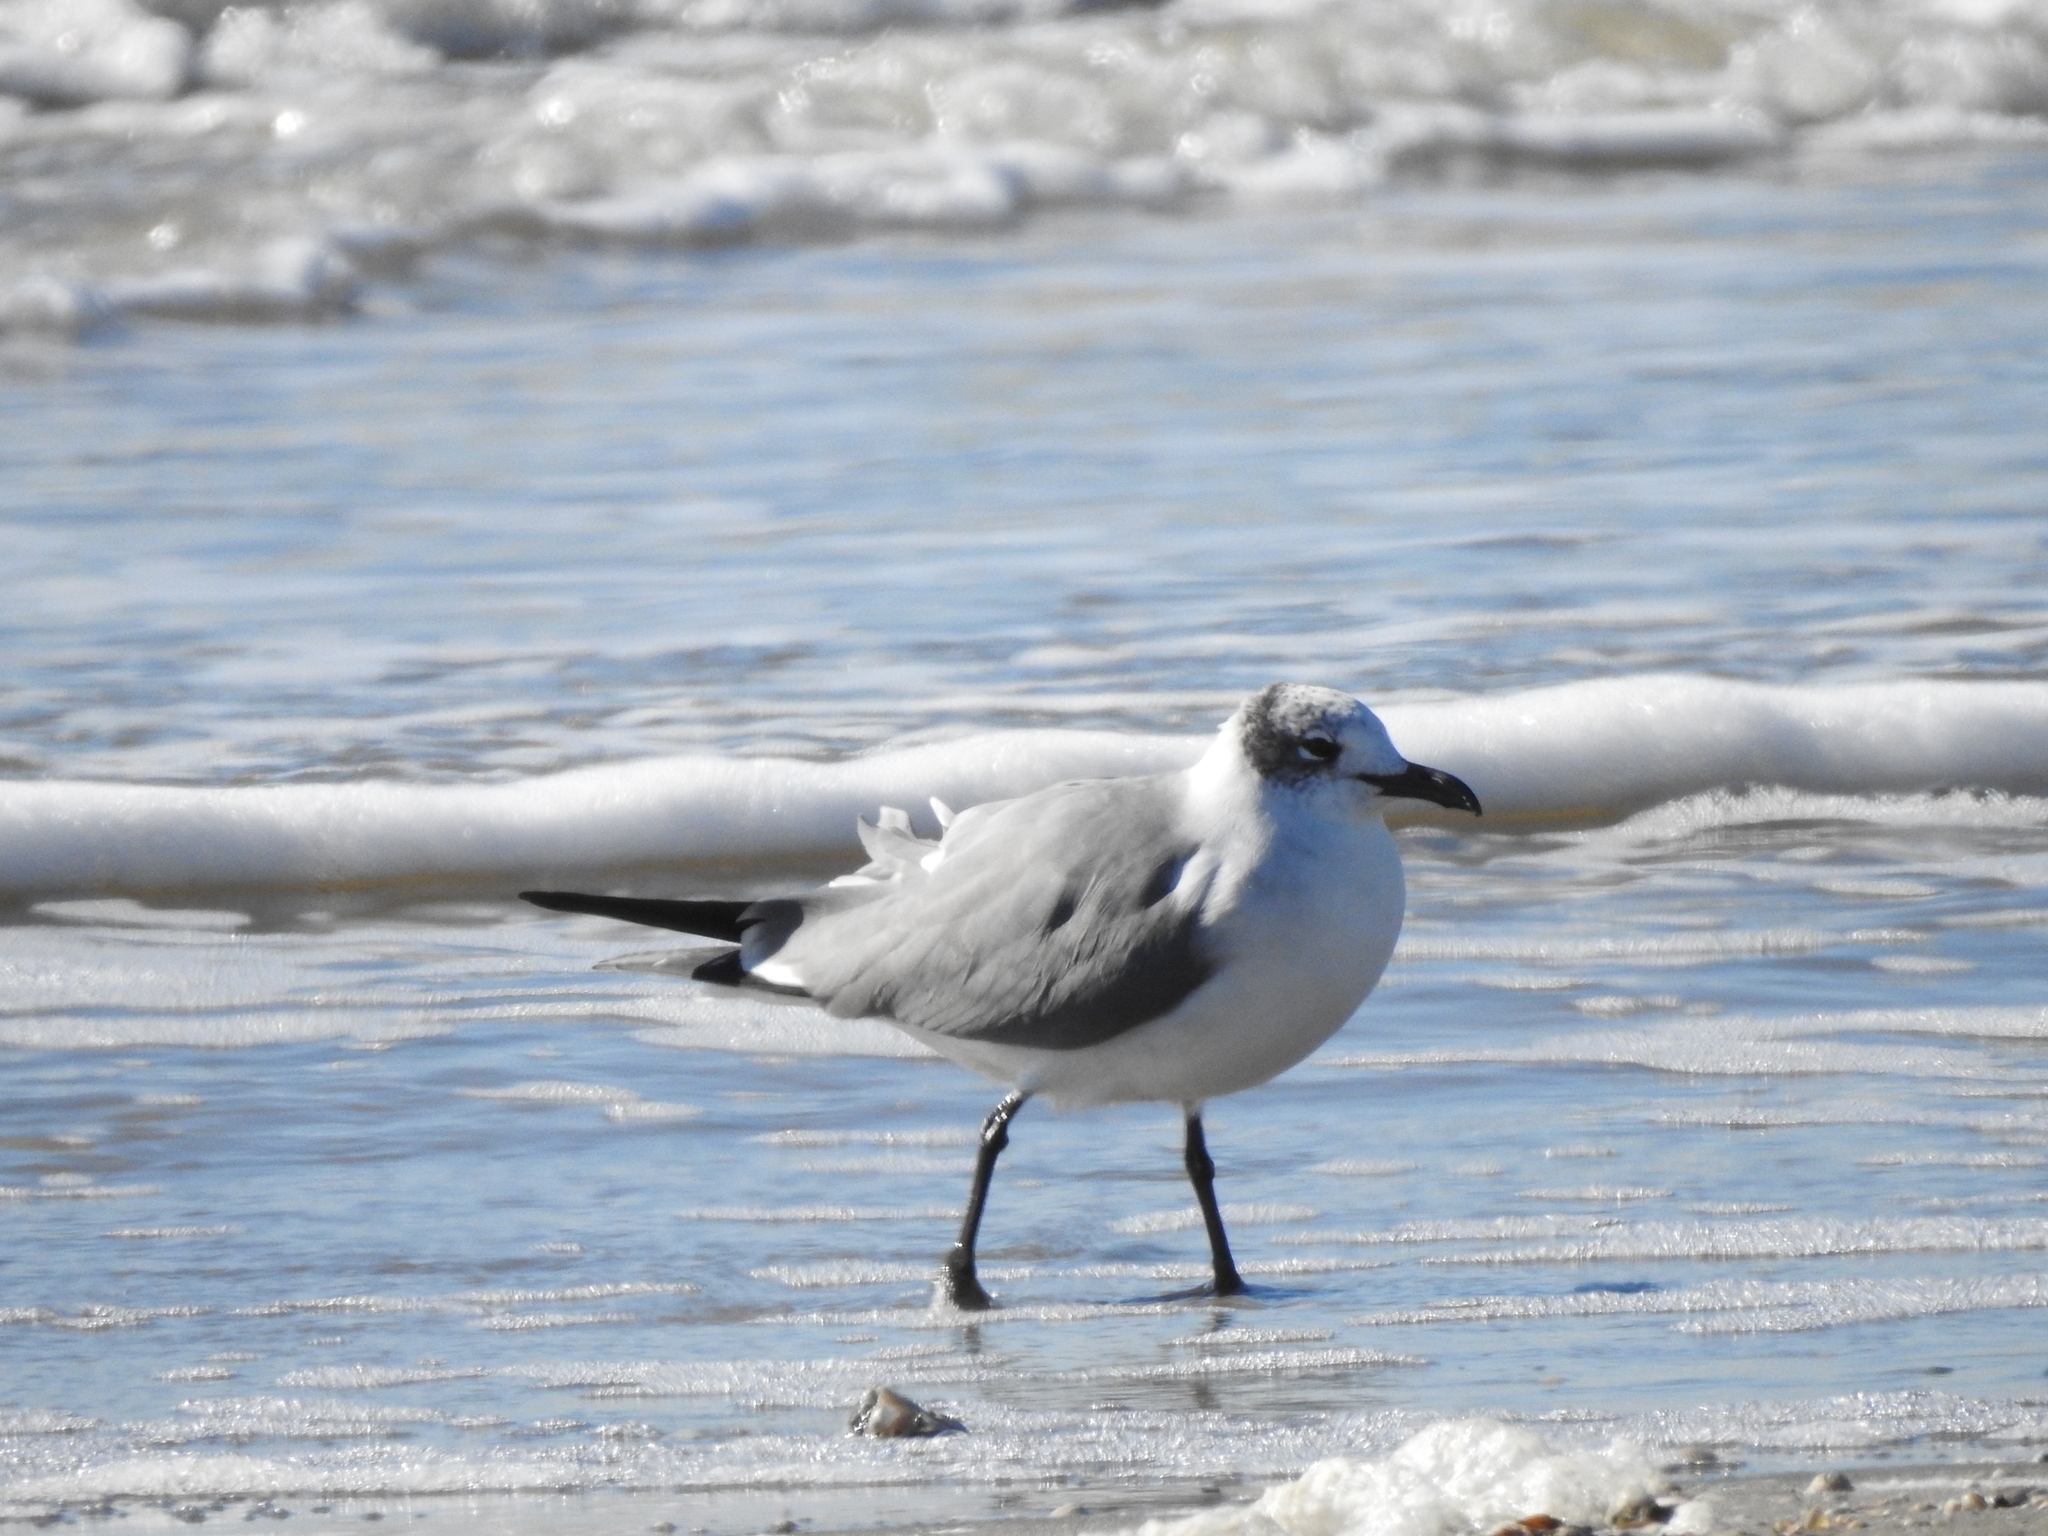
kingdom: Animalia
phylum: Chordata
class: Aves
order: Charadriiformes
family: Laridae
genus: Leucophaeus
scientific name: Leucophaeus atricilla
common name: Laughing gull
